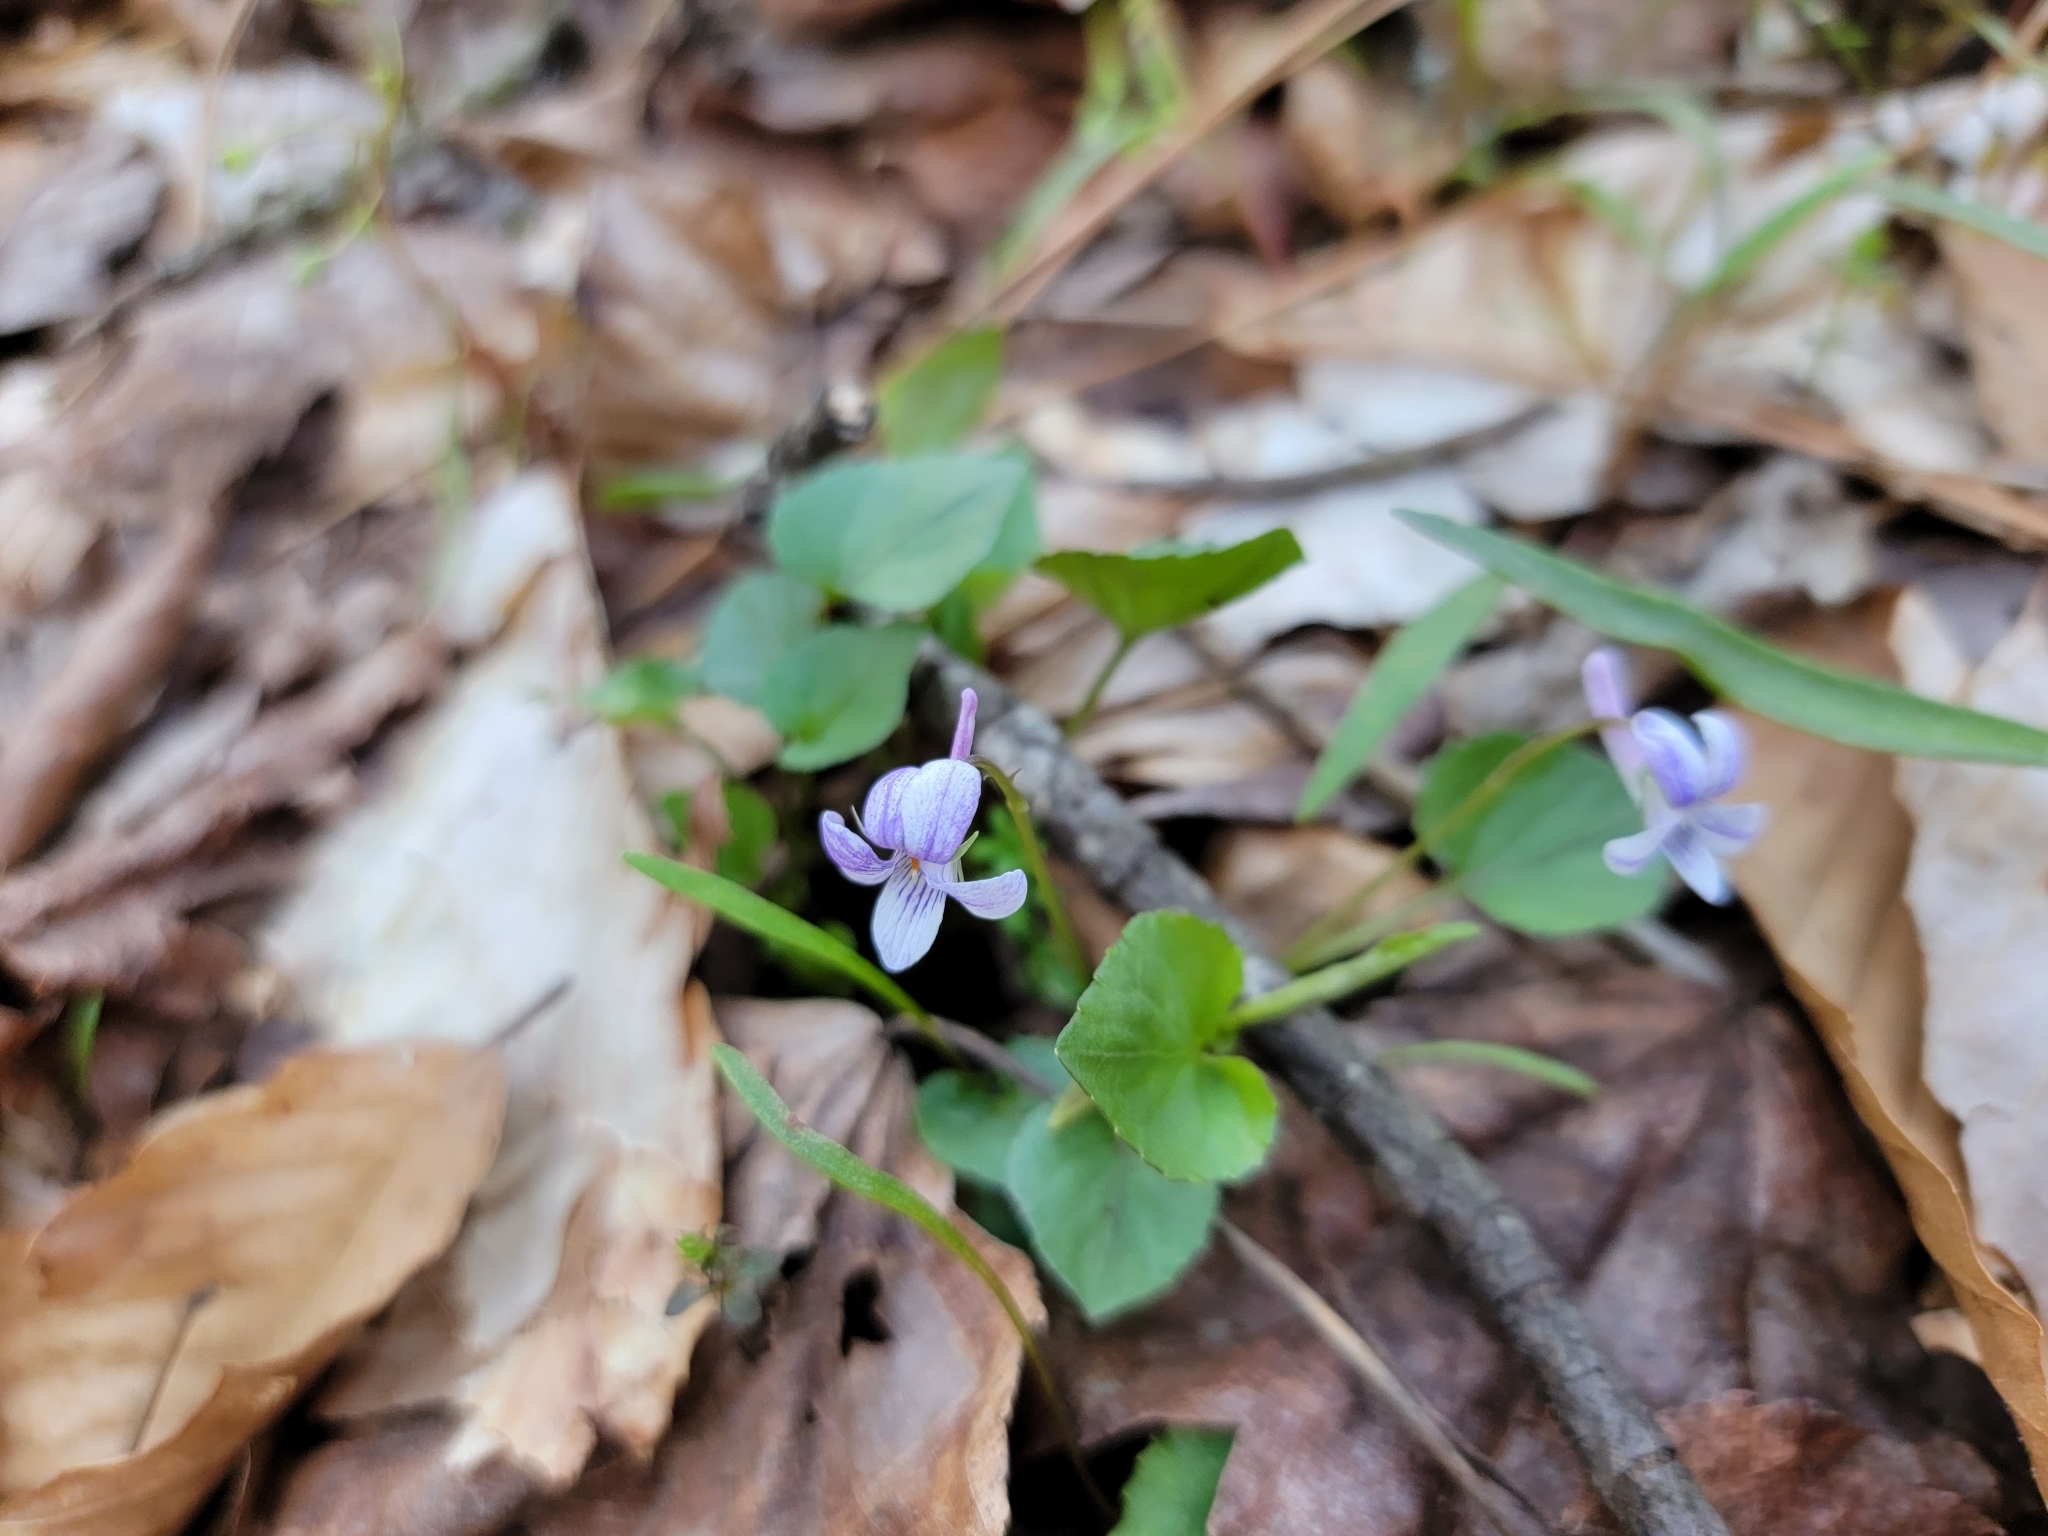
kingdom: Plantae
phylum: Tracheophyta
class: Magnoliopsida
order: Malpighiales
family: Violaceae
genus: Viola
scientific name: Viola rostrata
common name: Long-spur violet
